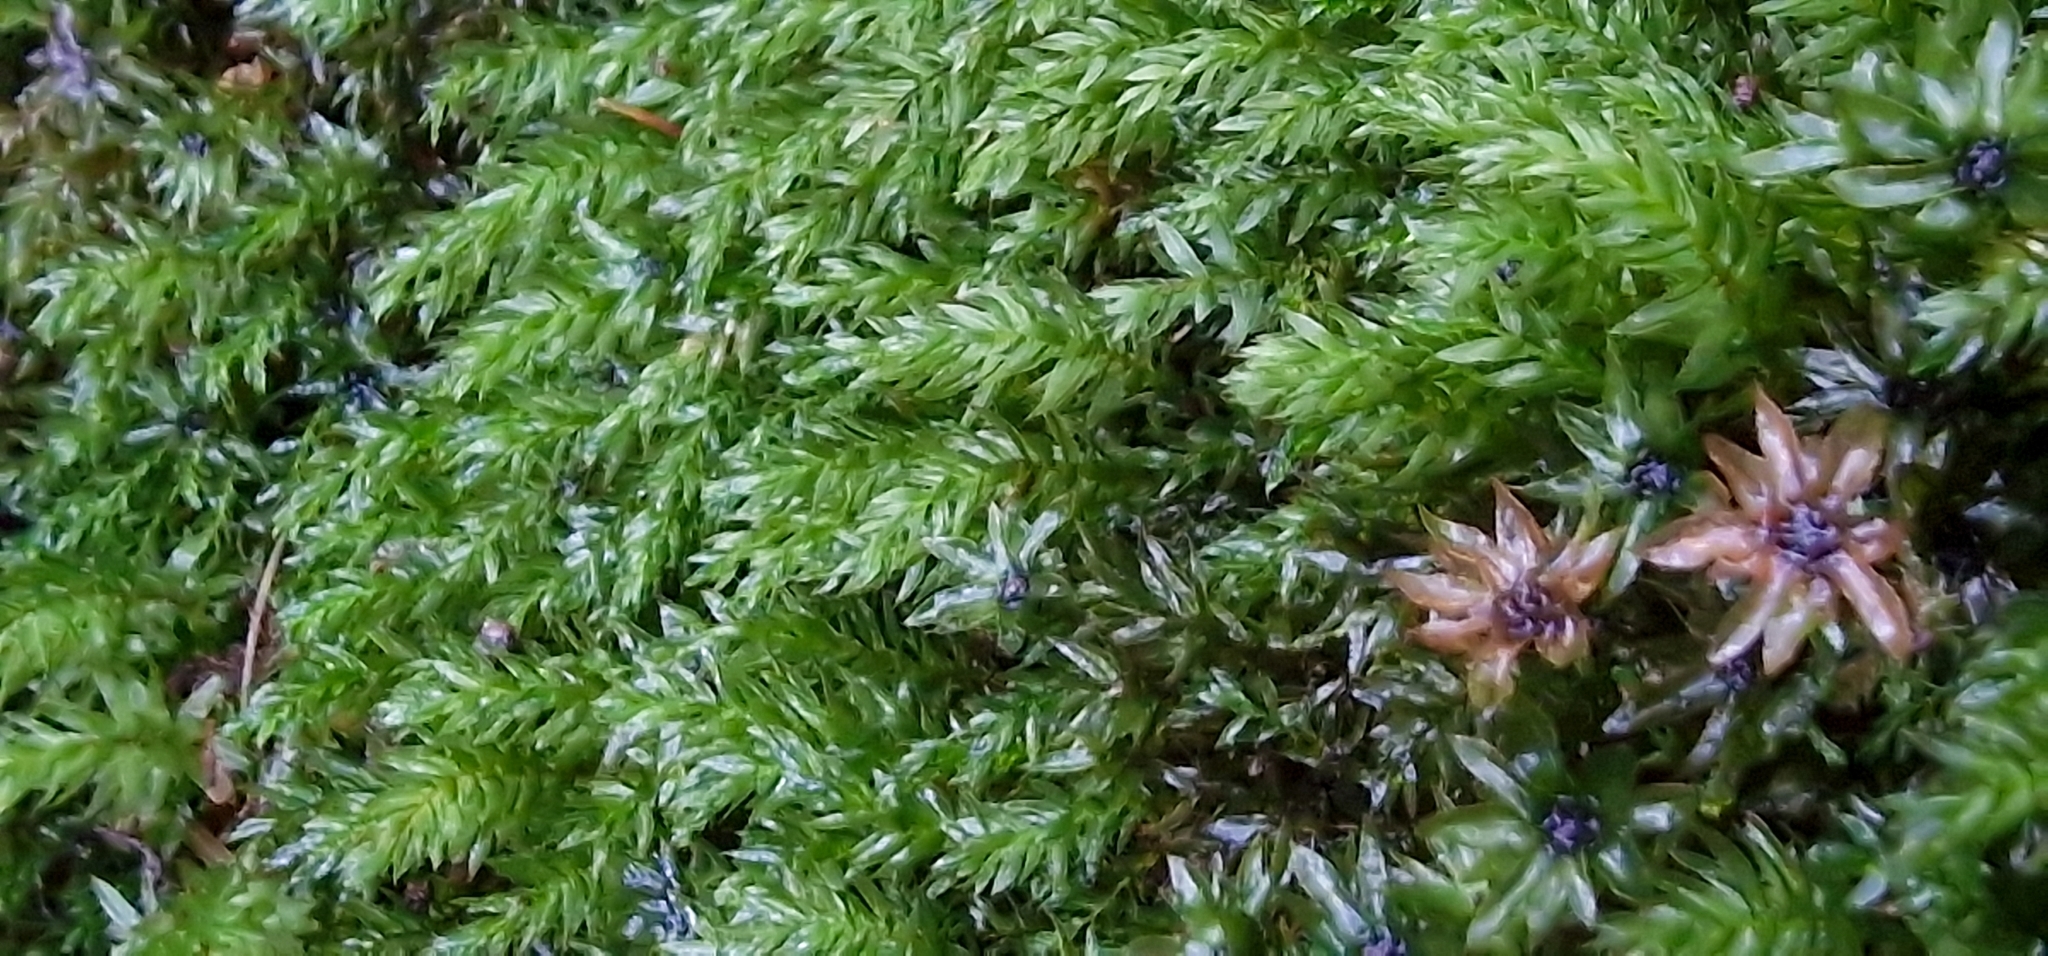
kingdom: Plantae
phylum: Bryophyta
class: Bryopsida
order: Bryales
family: Mniaceae
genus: Mnium
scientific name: Mnium hornum
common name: Swan's-neck leafy moss
